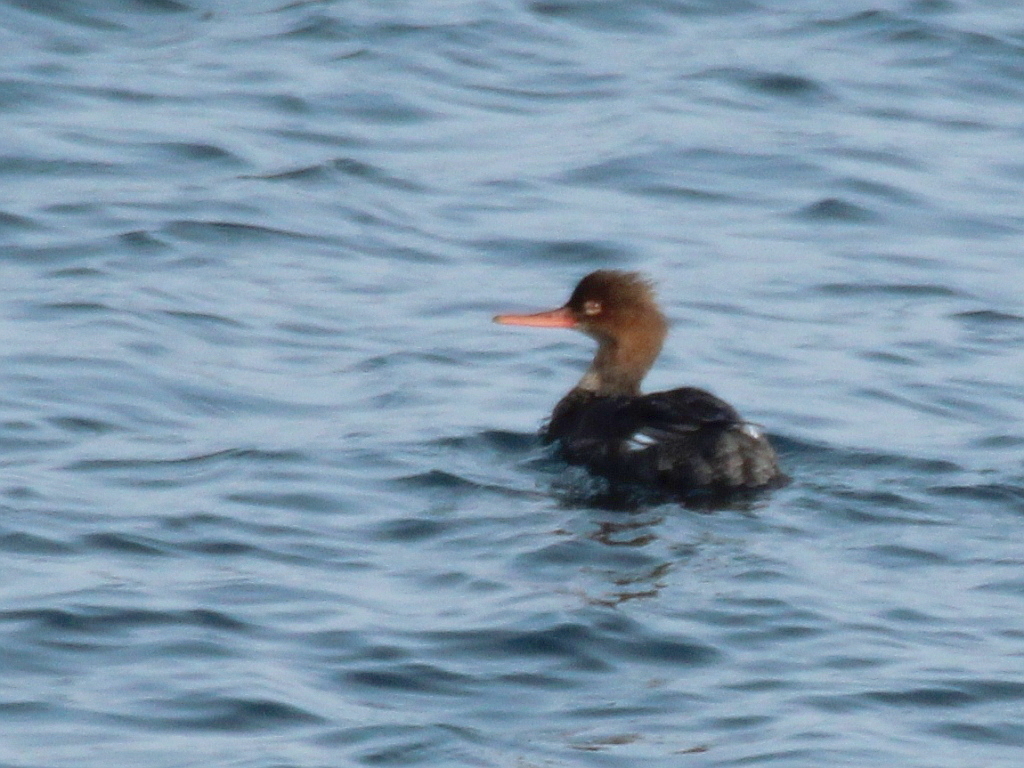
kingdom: Animalia
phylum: Chordata
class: Aves
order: Anseriformes
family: Anatidae
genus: Mergus
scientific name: Mergus serrator
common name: Red-breasted merganser
